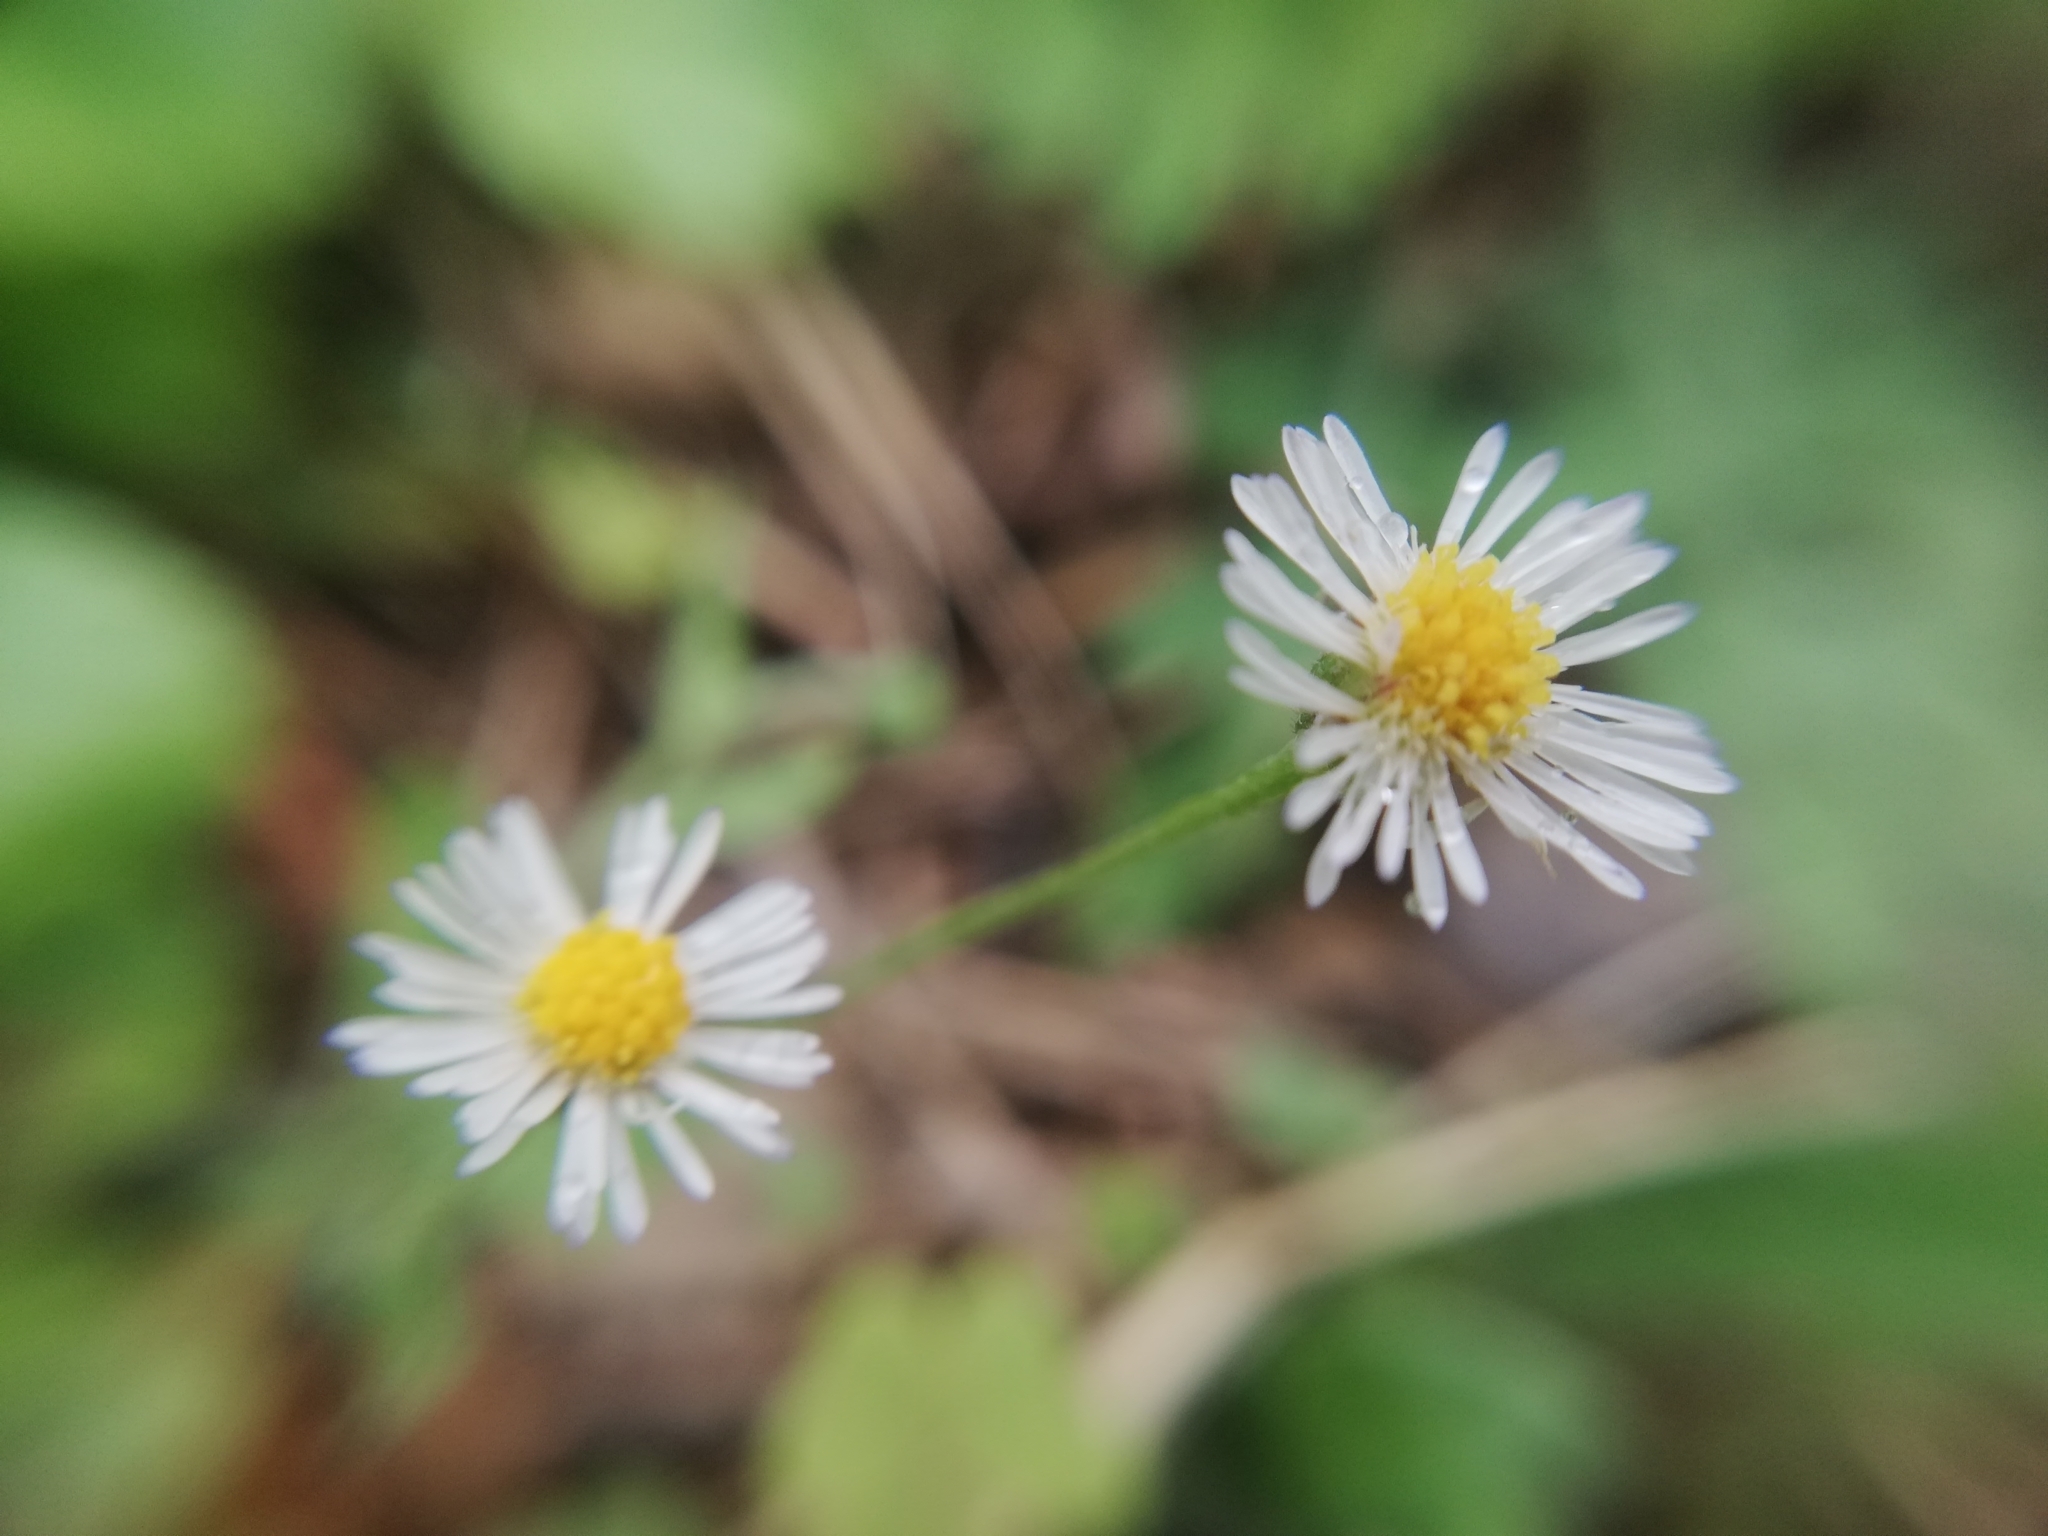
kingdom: Plantae
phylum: Tracheophyta
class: Magnoliopsida
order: Asterales
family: Asteraceae
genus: Erigeron
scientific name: Erigeron karvinskianus
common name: Mexican fleabane
